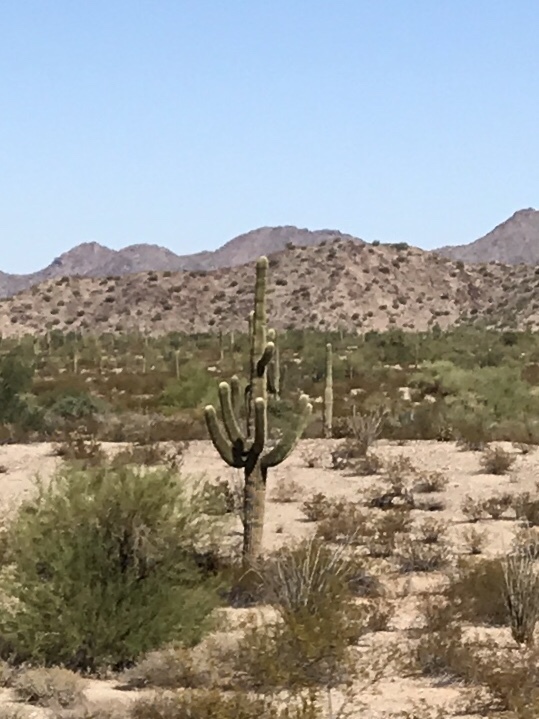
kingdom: Plantae
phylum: Tracheophyta
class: Magnoliopsida
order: Caryophyllales
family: Cactaceae
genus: Carnegiea
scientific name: Carnegiea gigantea
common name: Saguaro
